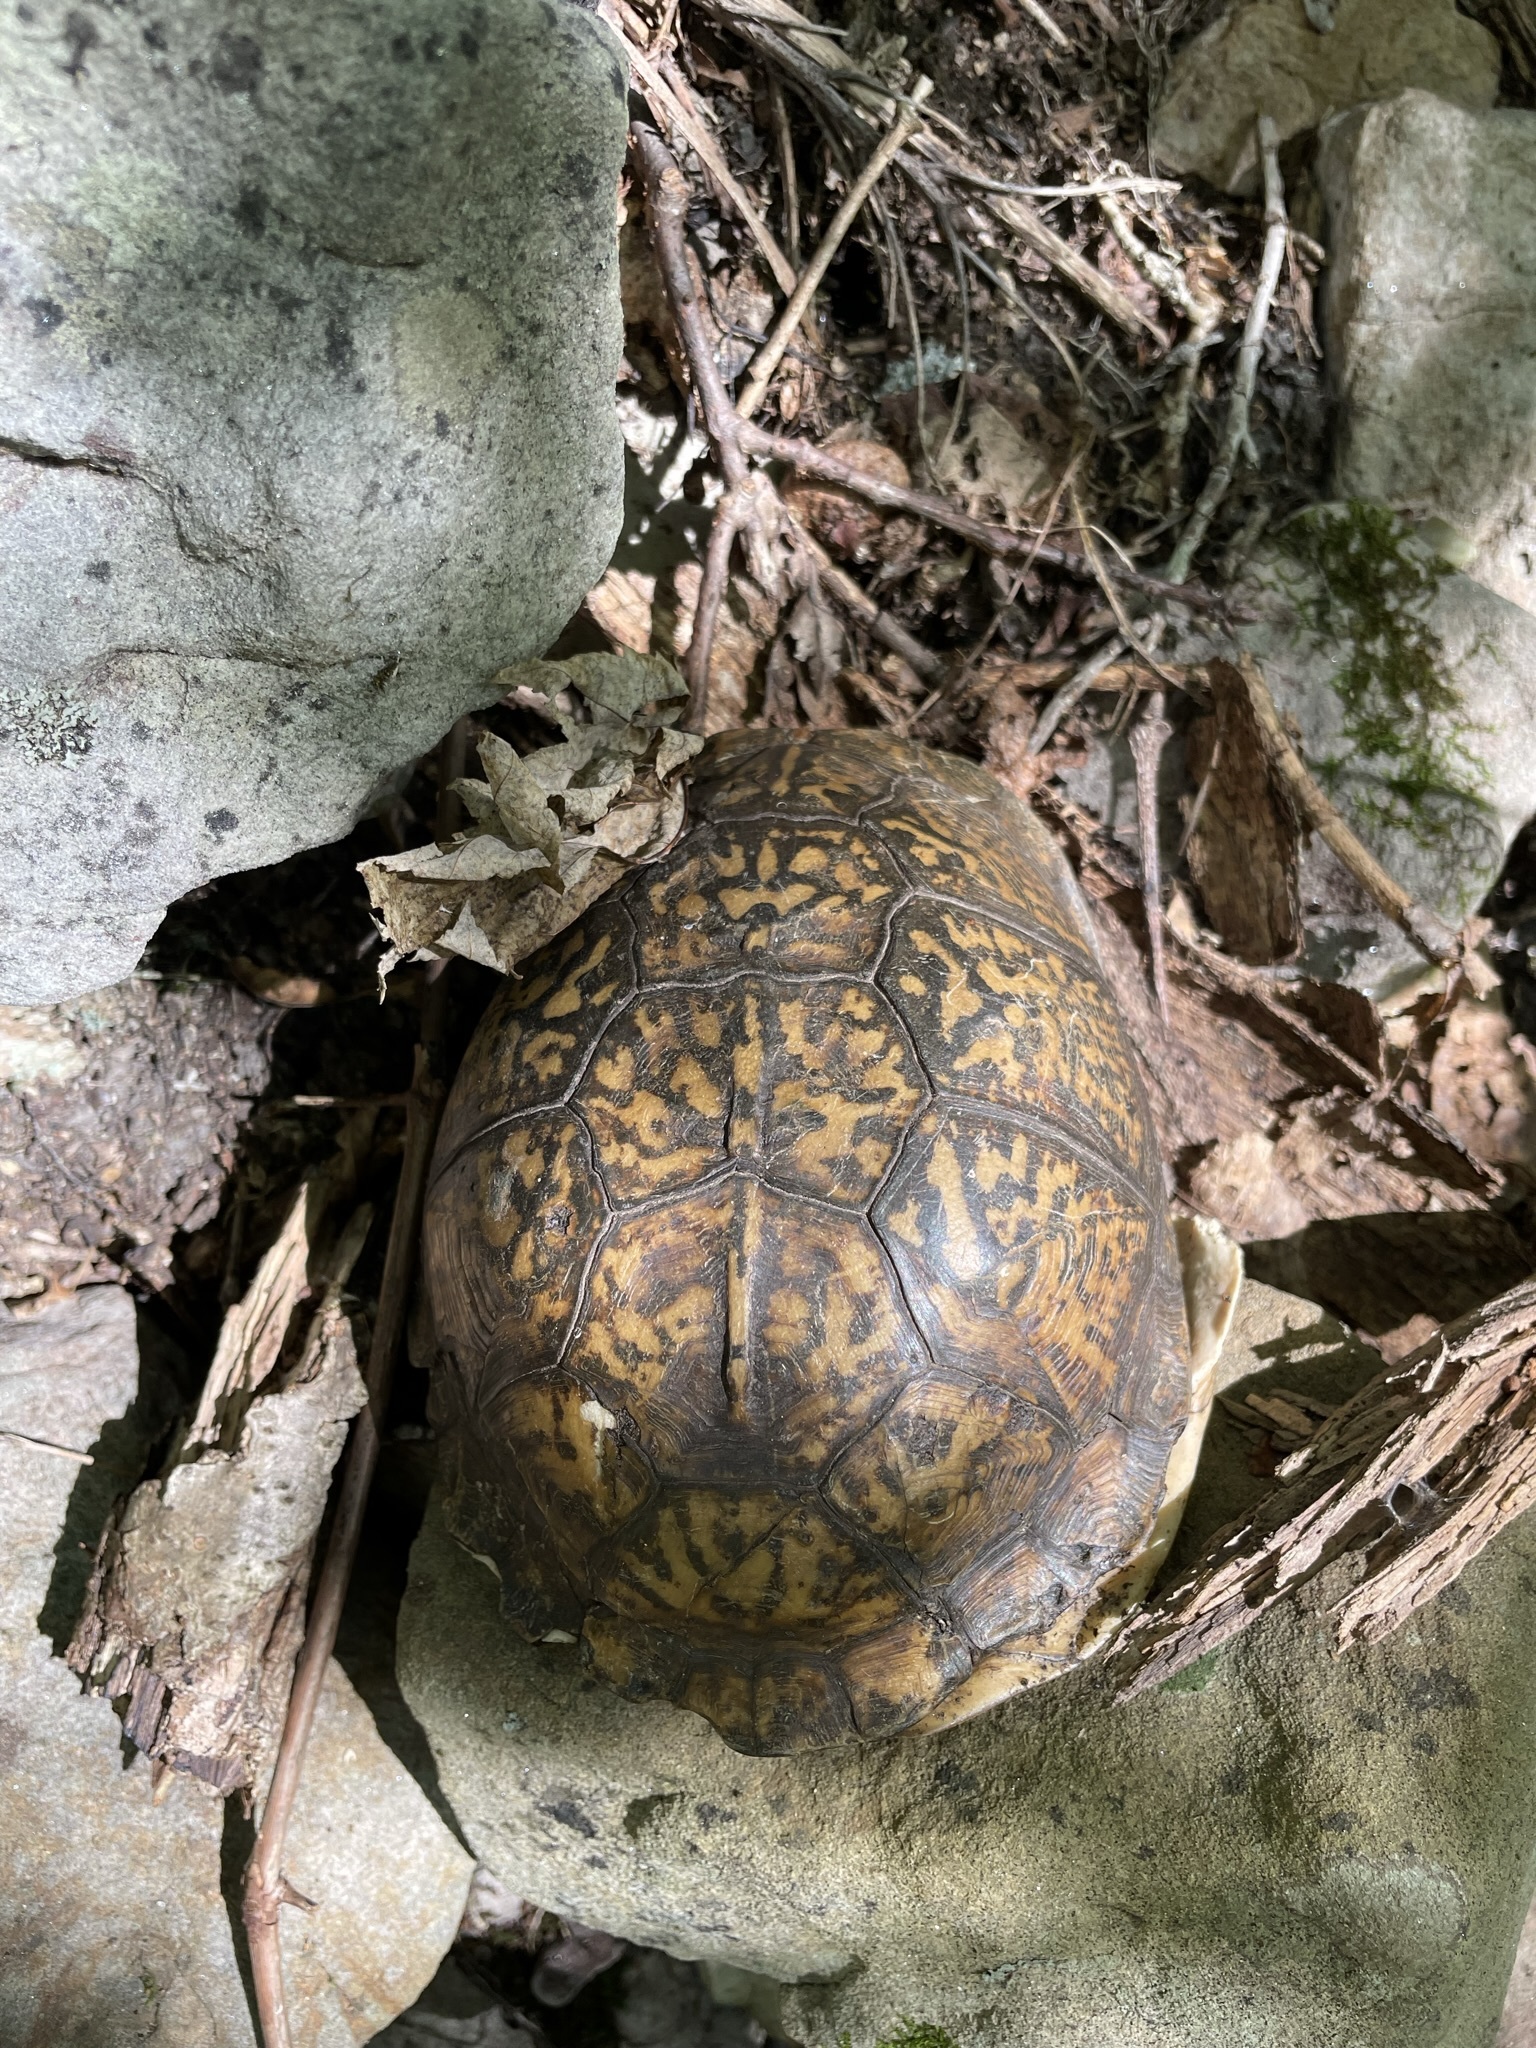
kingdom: Animalia
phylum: Chordata
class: Testudines
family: Emydidae
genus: Terrapene
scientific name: Terrapene carolina
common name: Common box turtle
